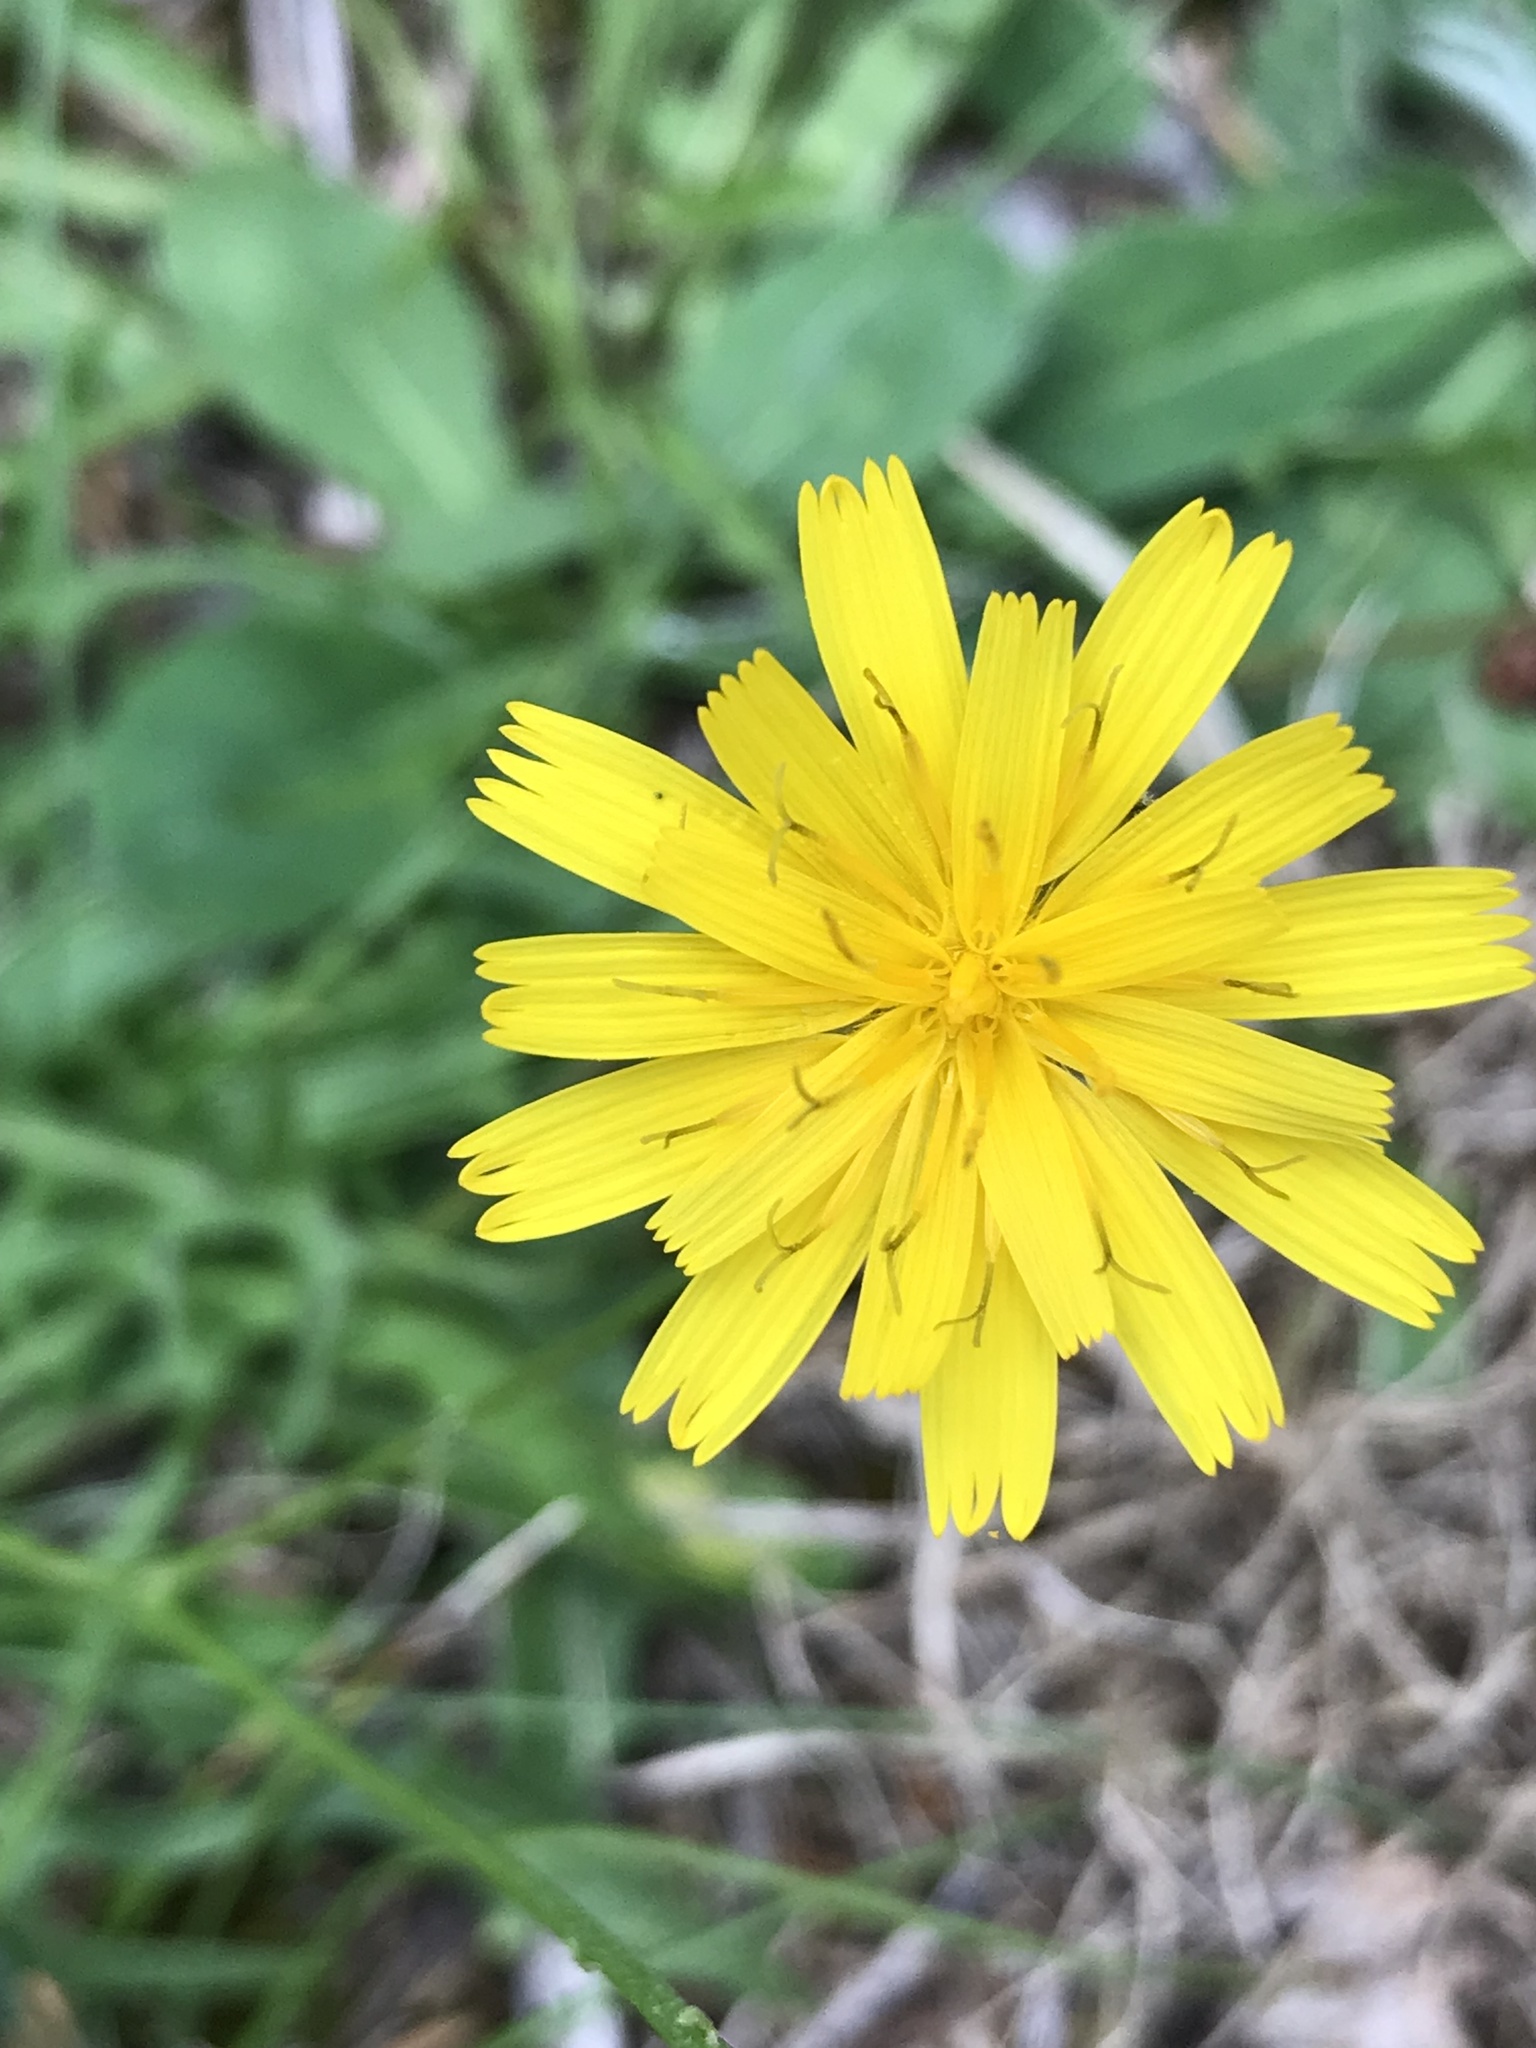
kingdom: Plantae
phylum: Tracheophyta
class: Magnoliopsida
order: Asterales
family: Asteraceae
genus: Scorzoneroides
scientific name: Scorzoneroides autumnalis
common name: Autumn hawkbit
